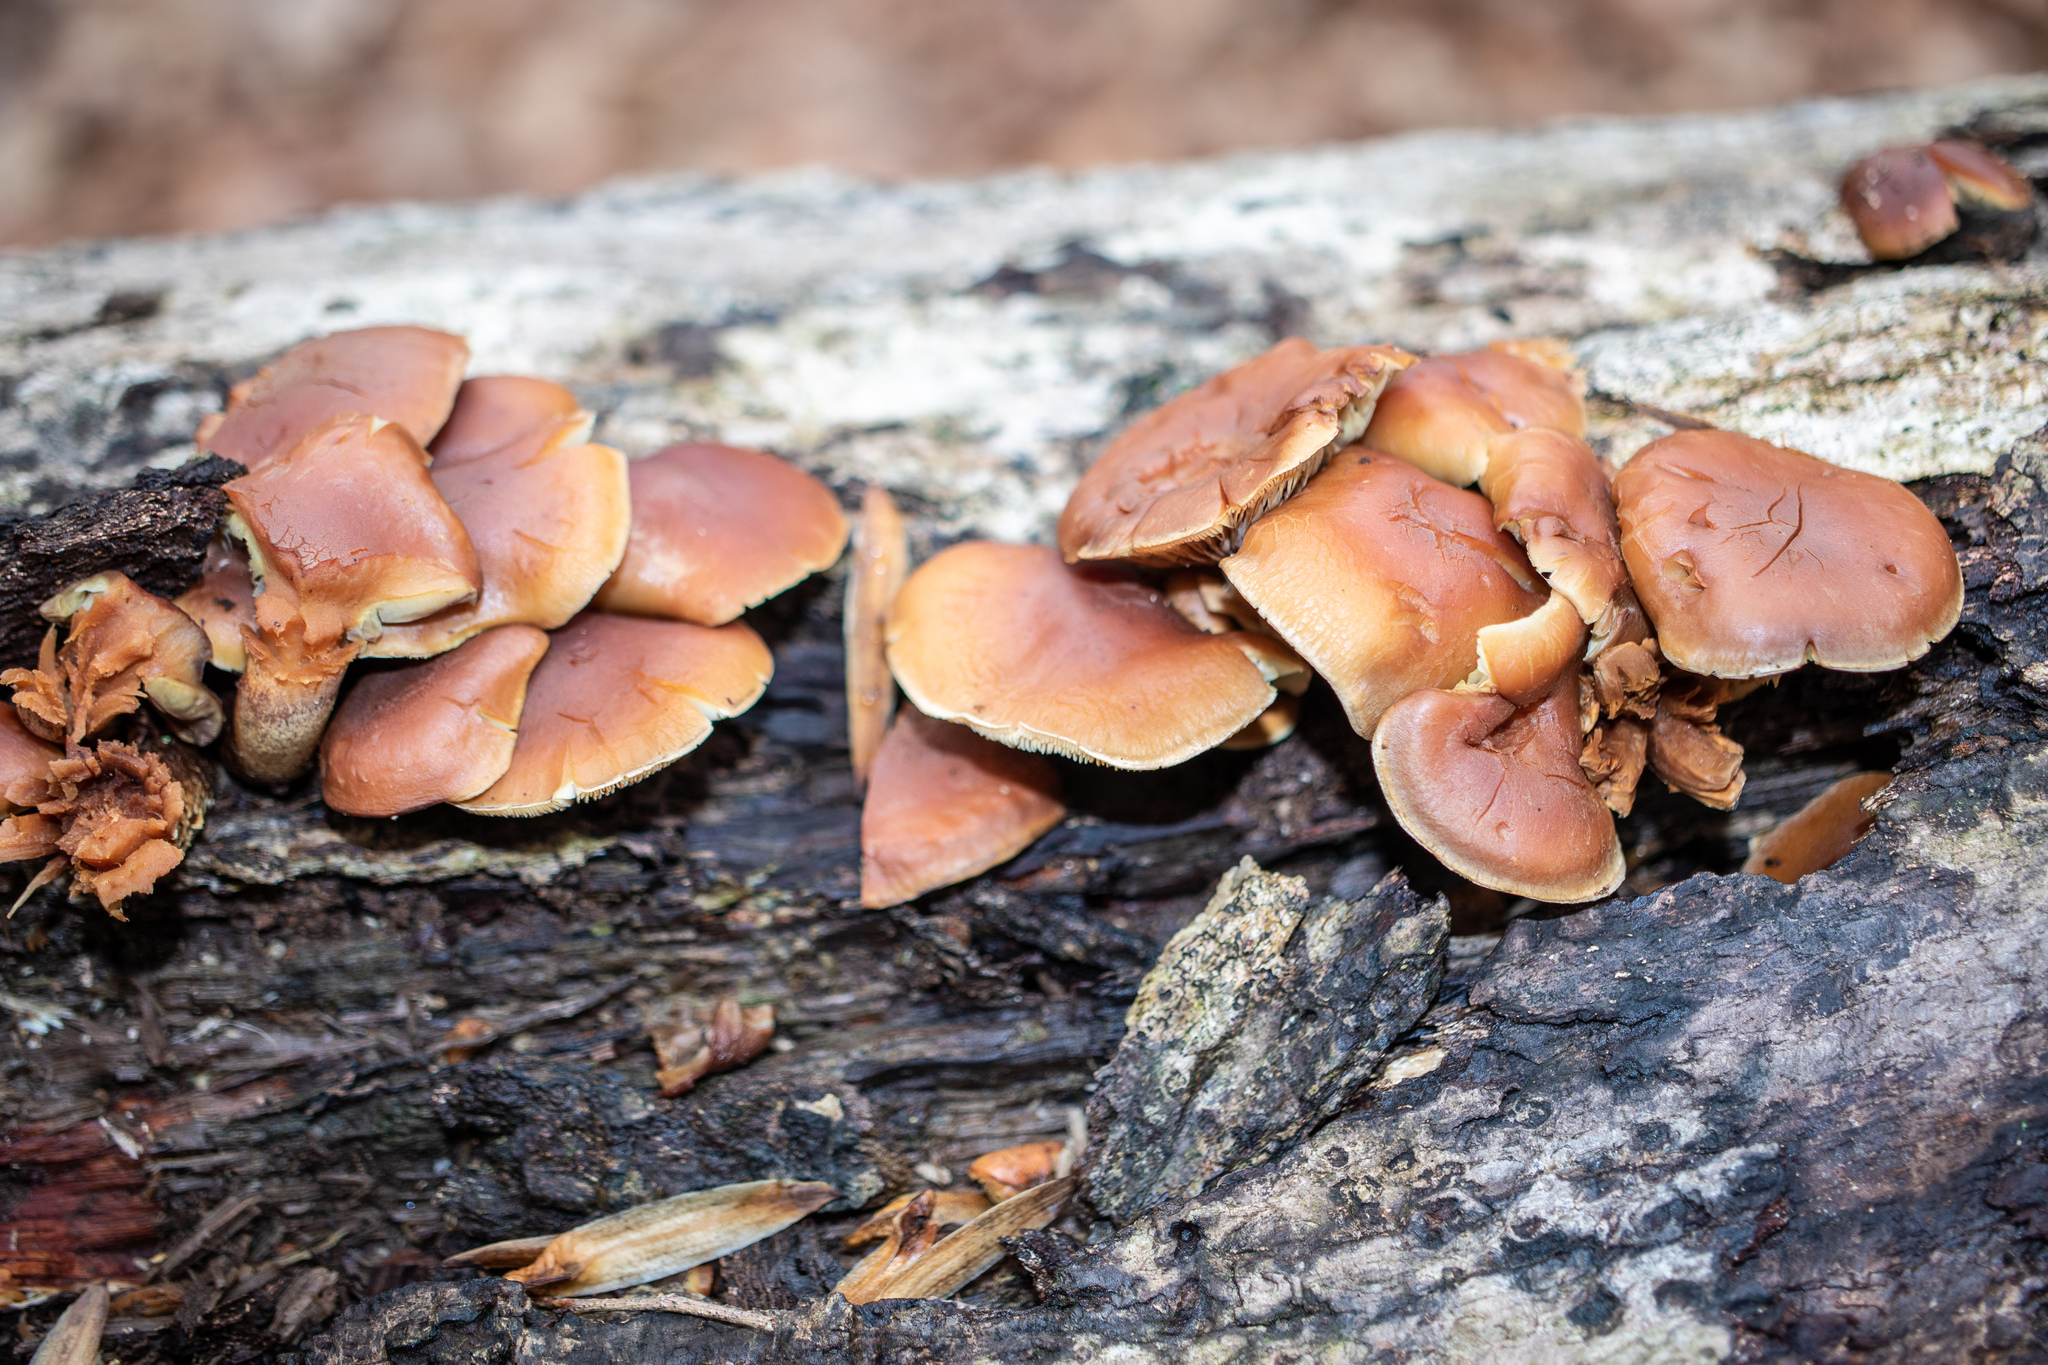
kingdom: Fungi
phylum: Basidiomycota
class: Agaricomycetes
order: Agaricales
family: Strophariaceae
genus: Hypholoma
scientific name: Hypholoma lateritium
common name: Brick caps
